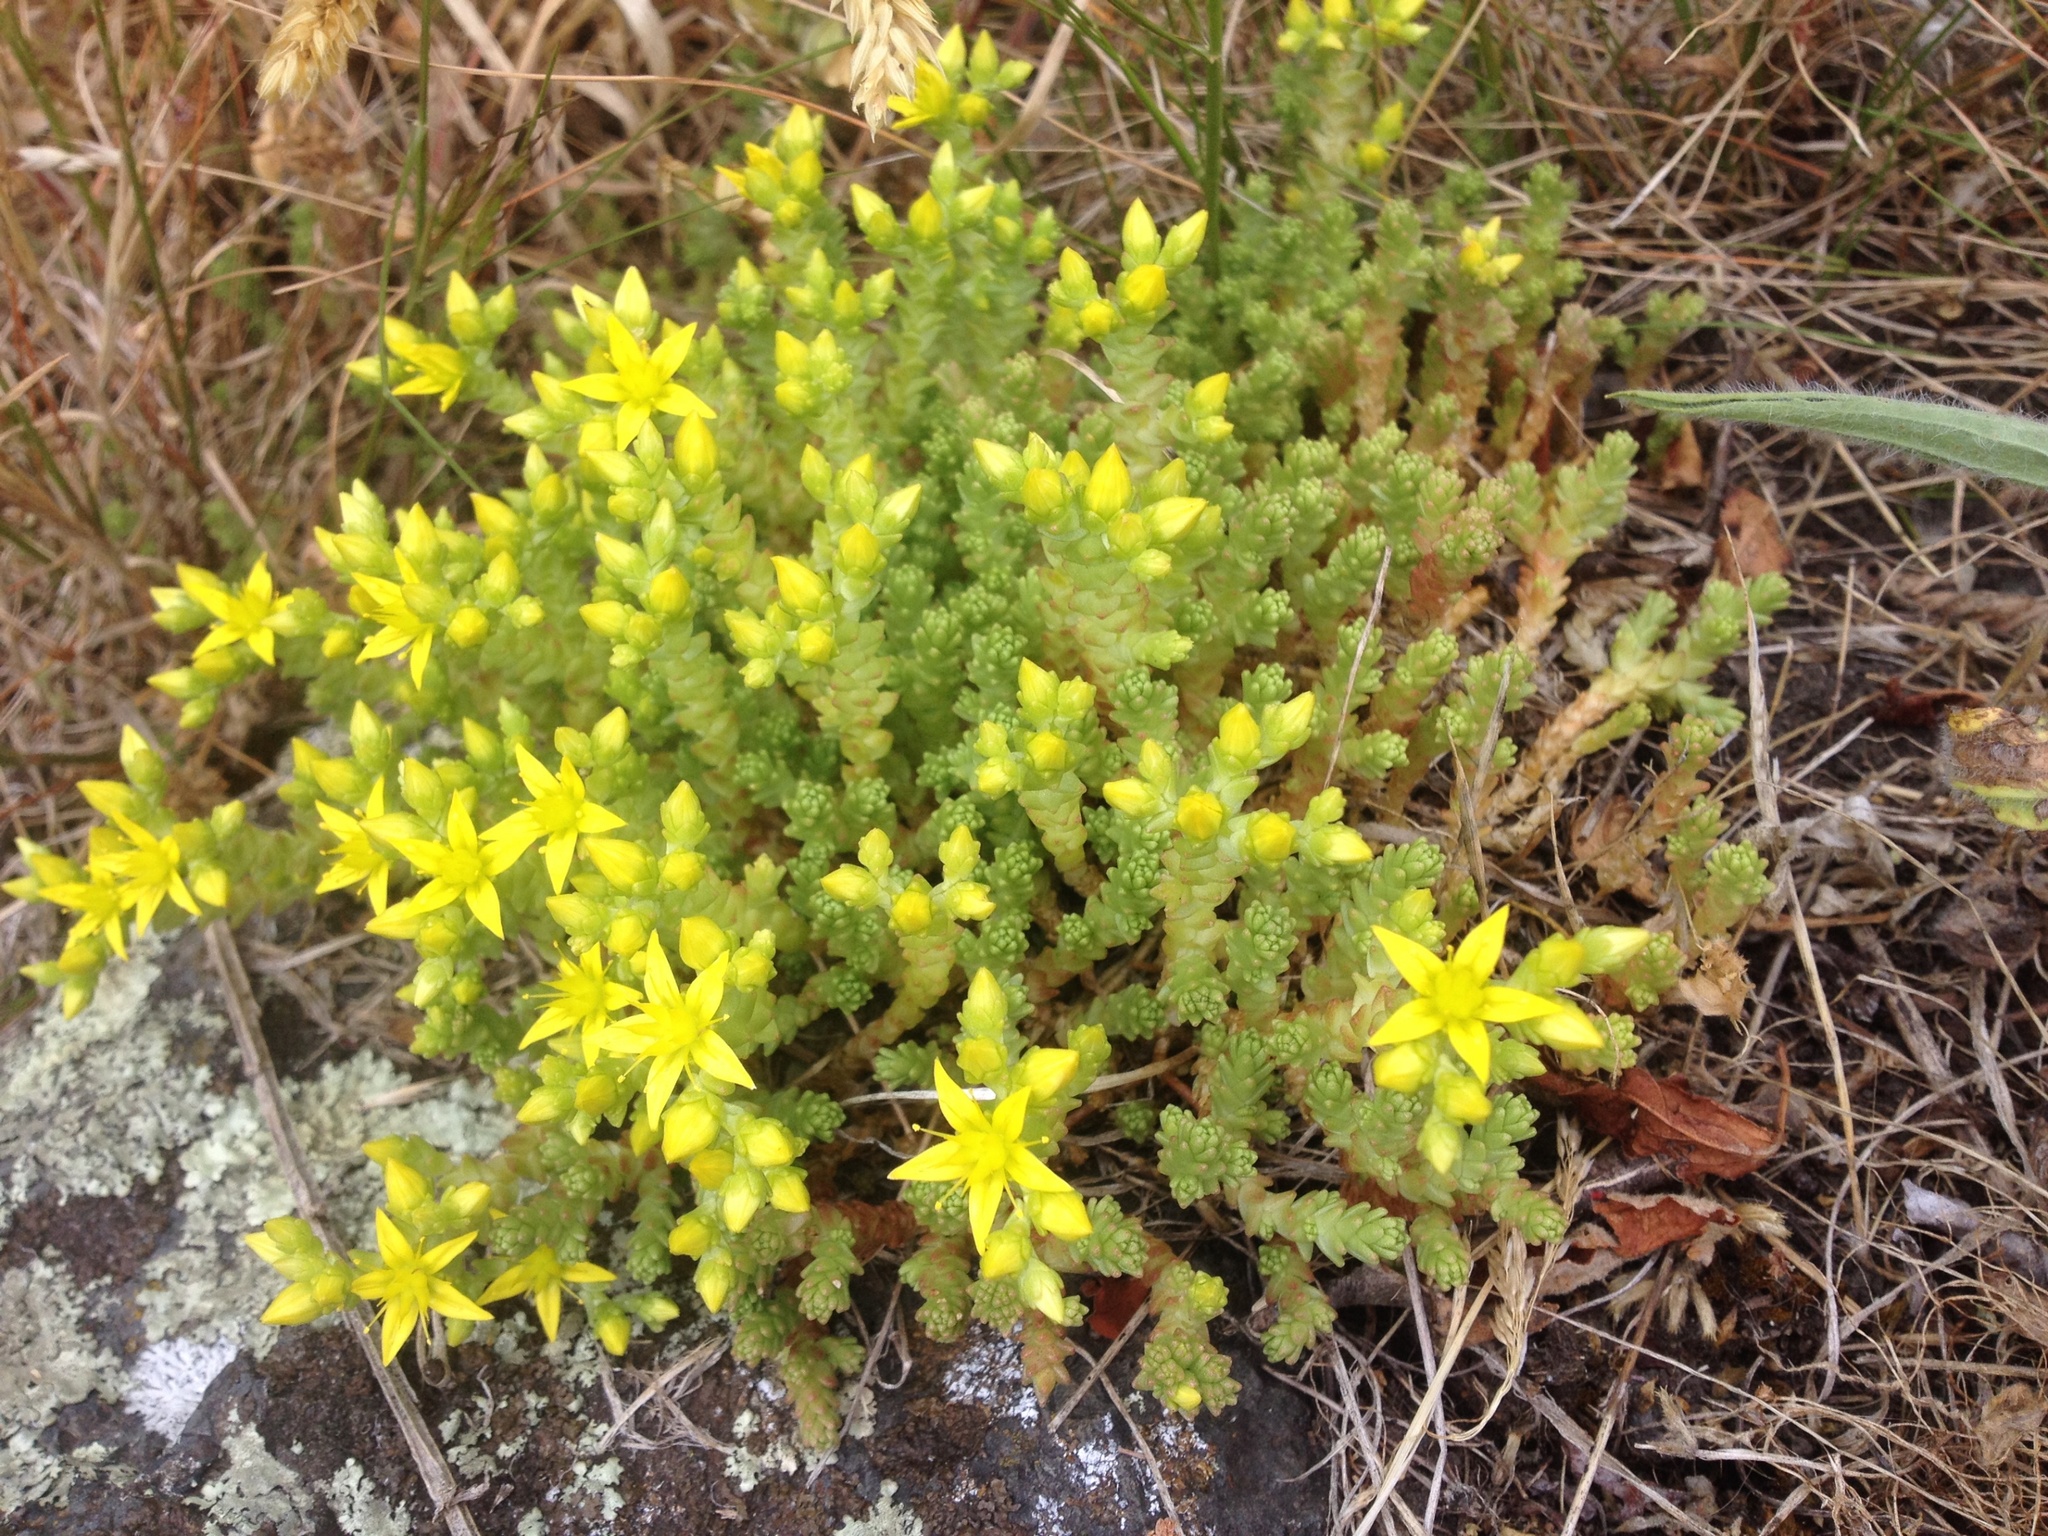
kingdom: Plantae
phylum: Tracheophyta
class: Magnoliopsida
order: Saxifragales
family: Crassulaceae
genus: Sedum
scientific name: Sedum acre
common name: Biting stonecrop
